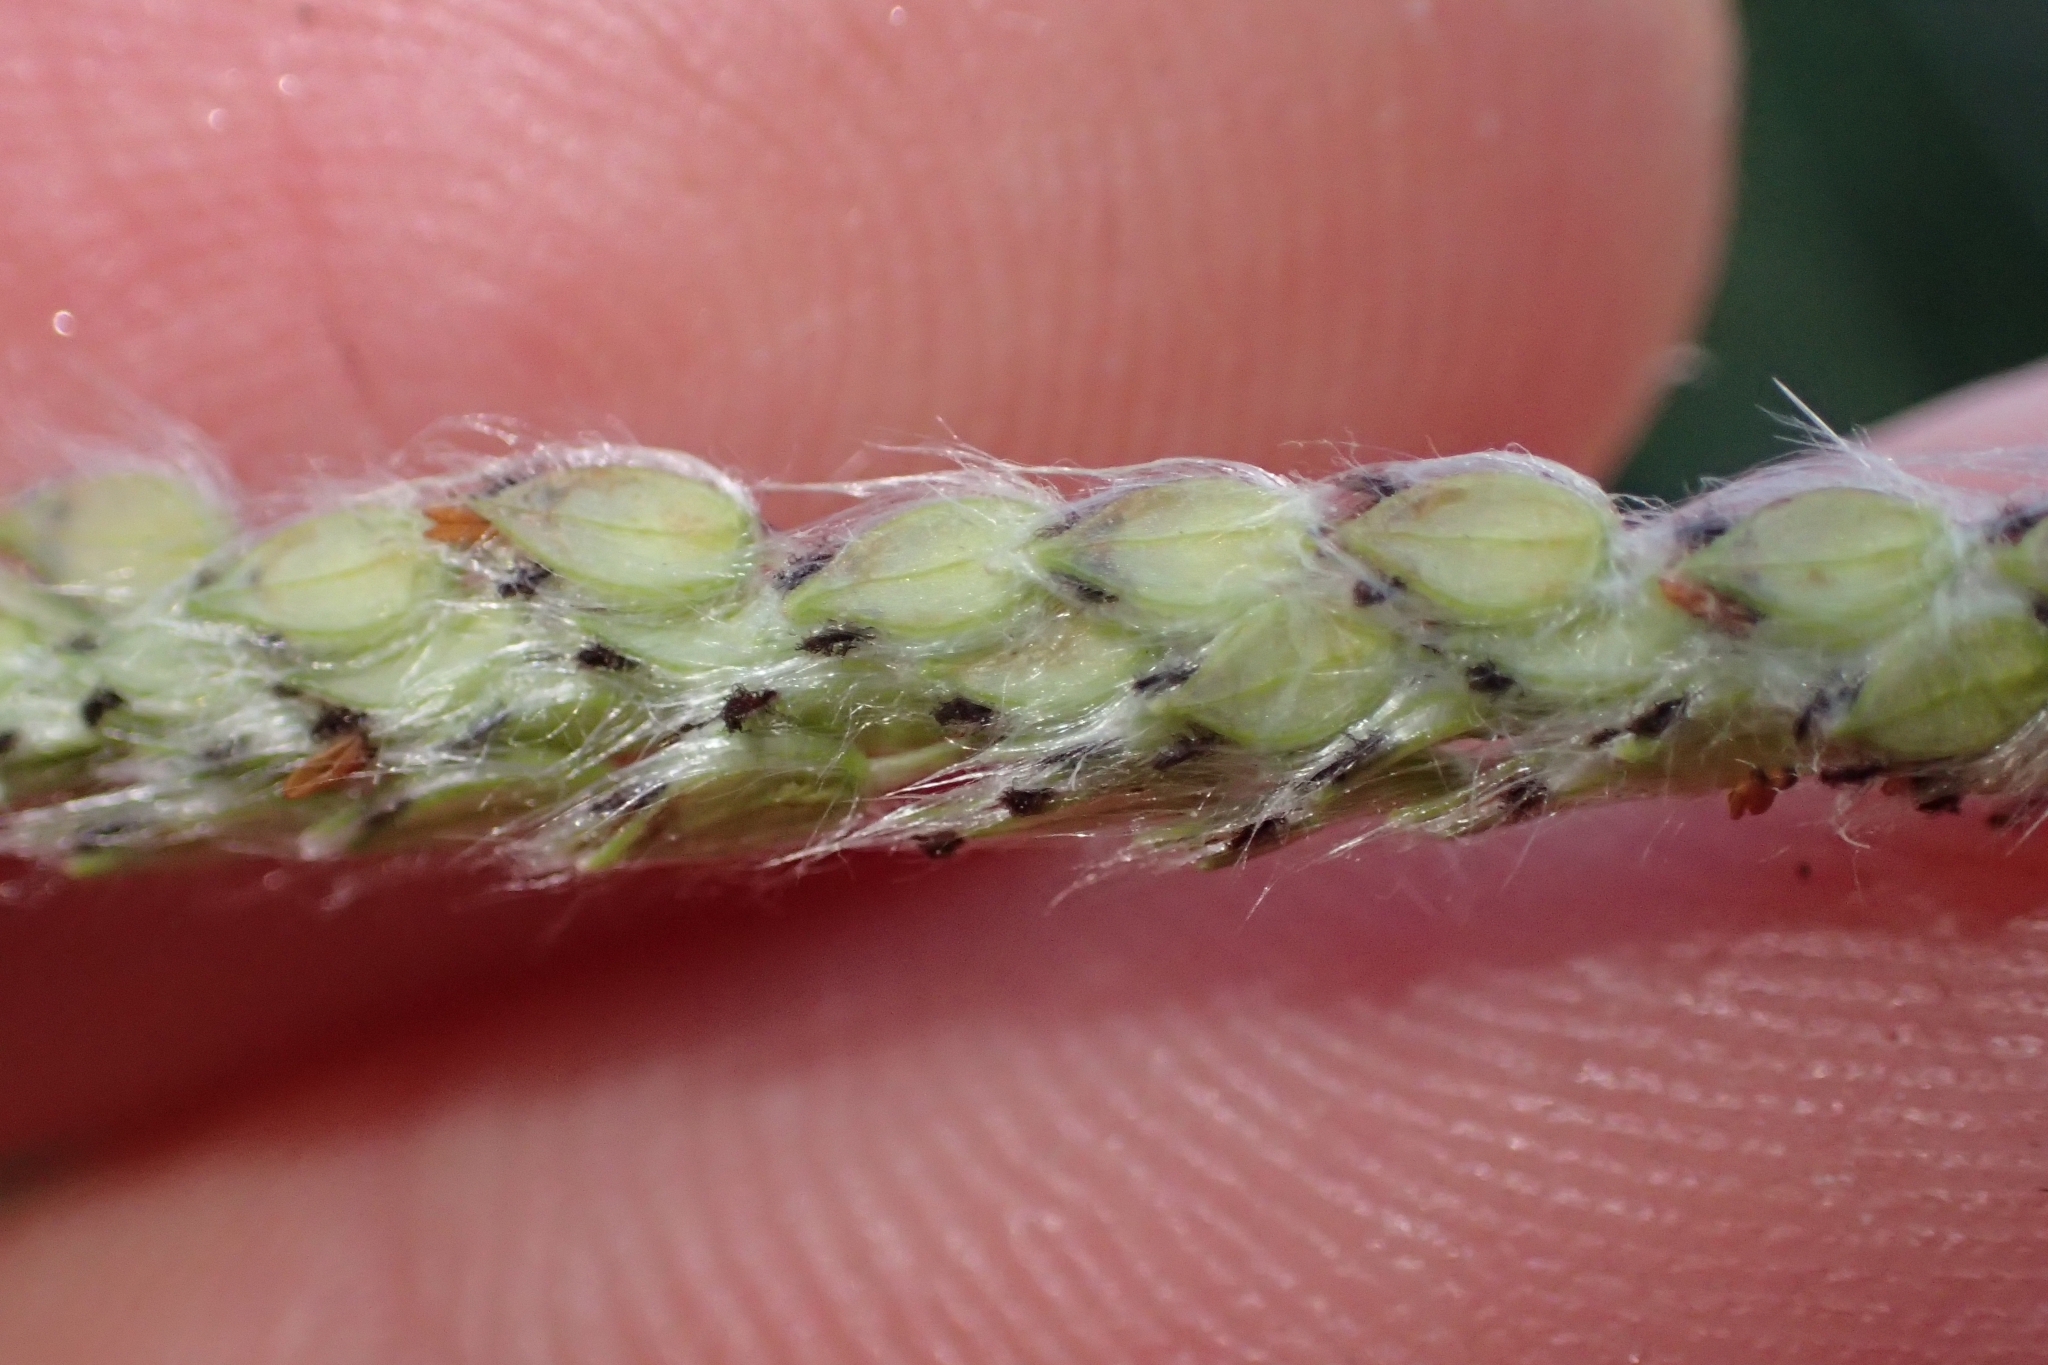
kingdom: Plantae
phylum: Tracheophyta
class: Liliopsida
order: Poales
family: Poaceae
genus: Paspalum
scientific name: Paspalum urvillei
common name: Vasey's grass
